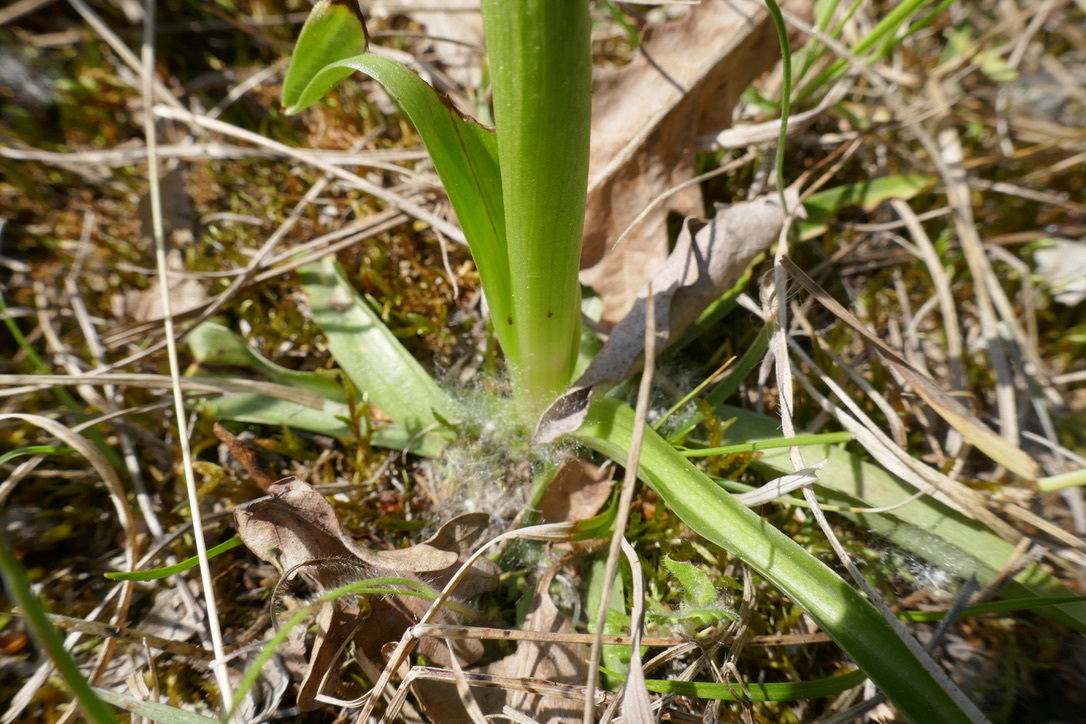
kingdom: Plantae
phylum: Tracheophyta
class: Liliopsida
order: Asparagales
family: Orchidaceae
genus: Anacamptis
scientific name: Anacamptis morio
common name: Green-winged orchid
